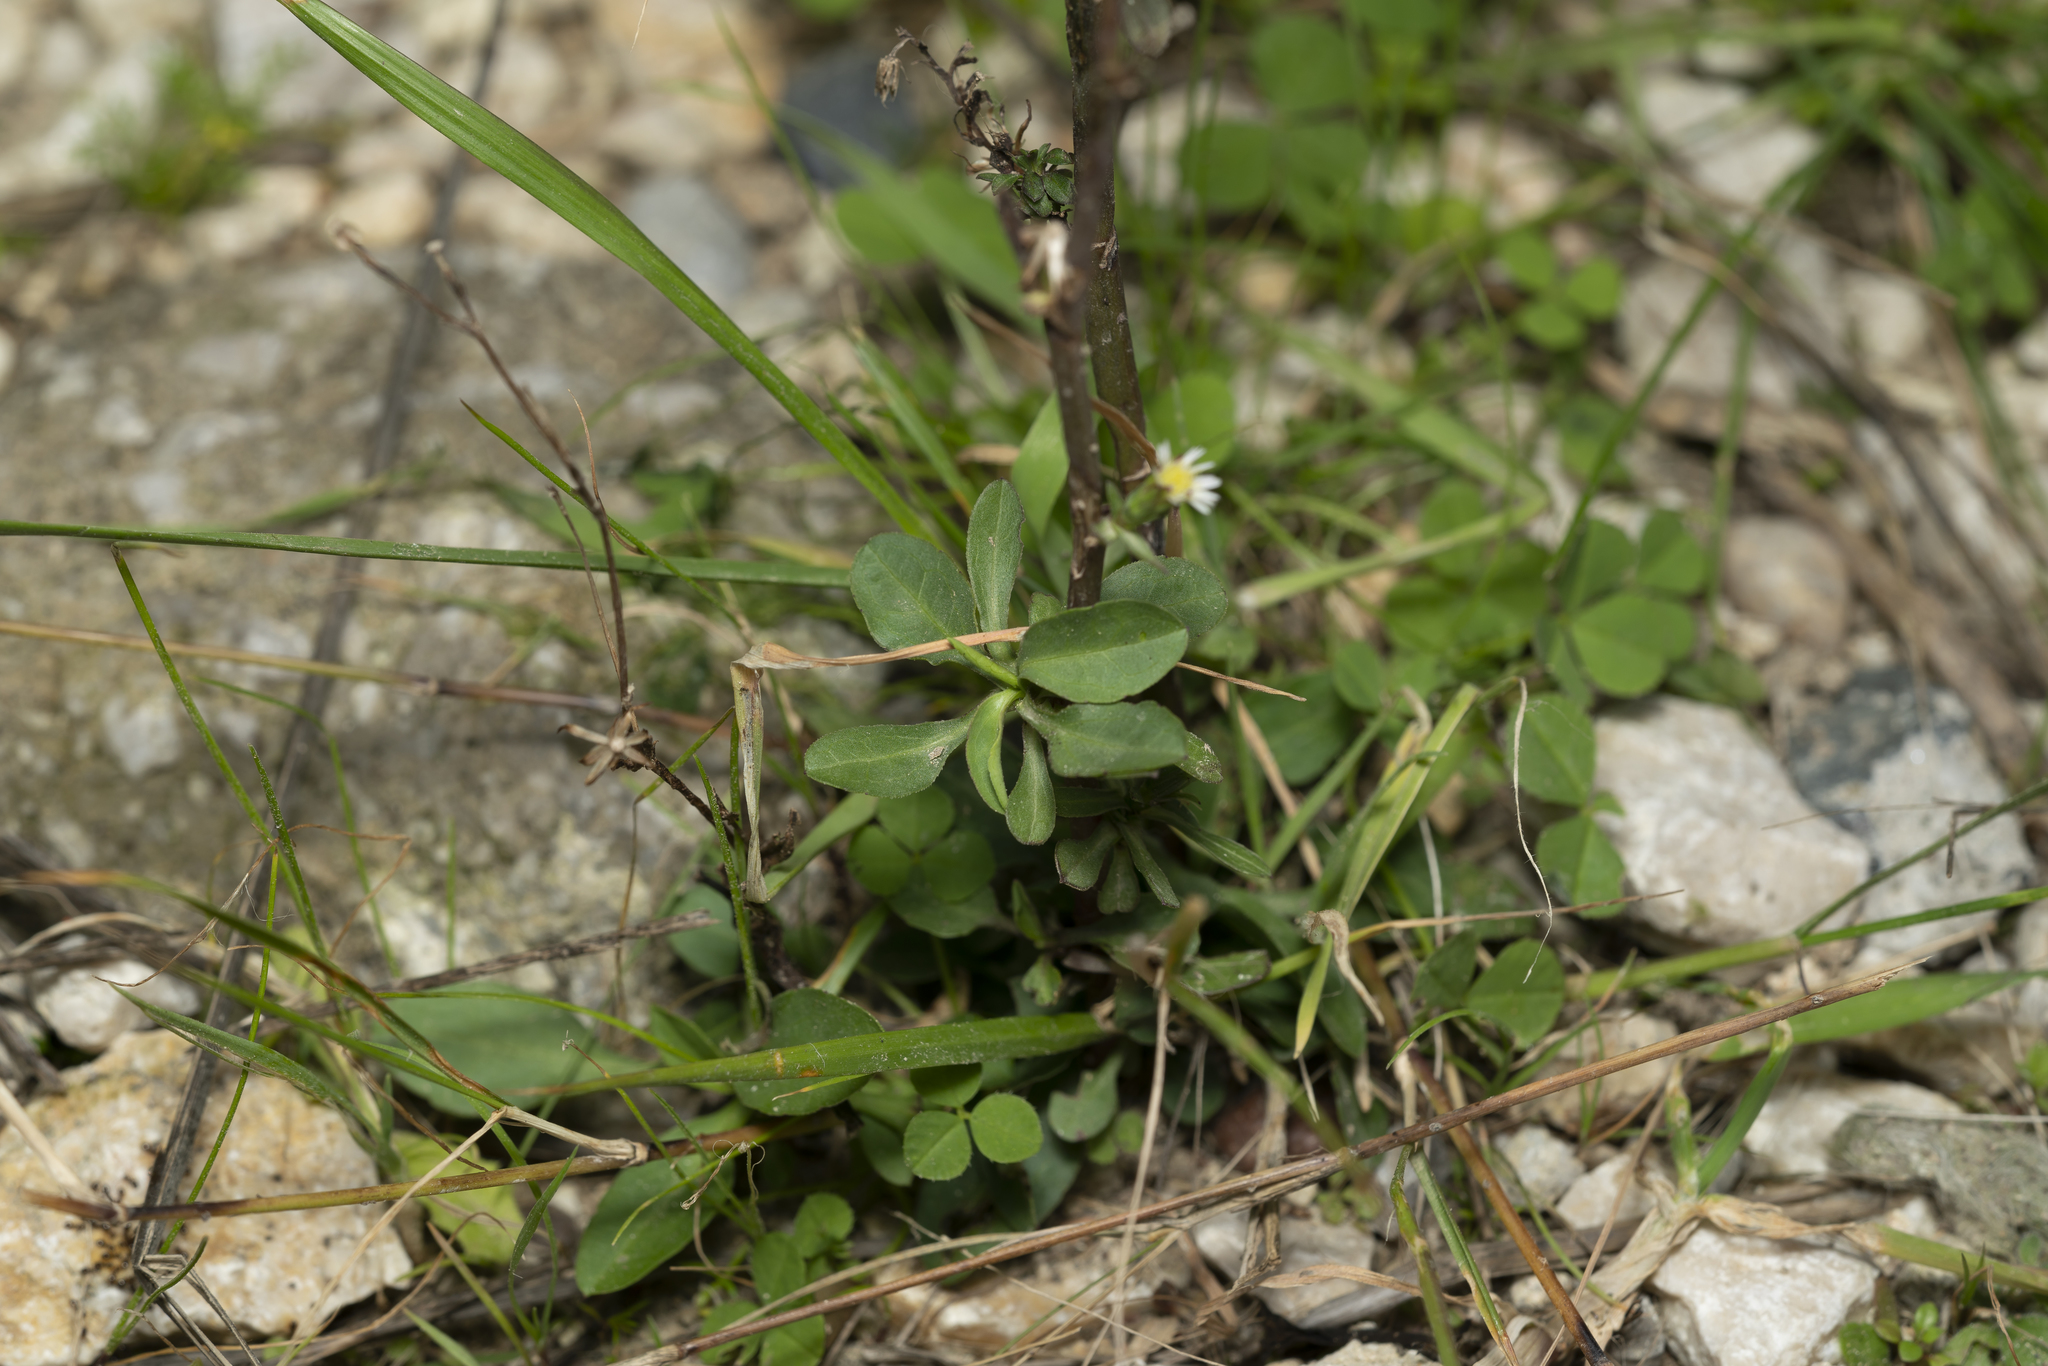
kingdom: Plantae
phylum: Tracheophyta
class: Magnoliopsida
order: Asterales
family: Asteraceae
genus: Symphyotrichum
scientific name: Symphyotrichum squamatum
